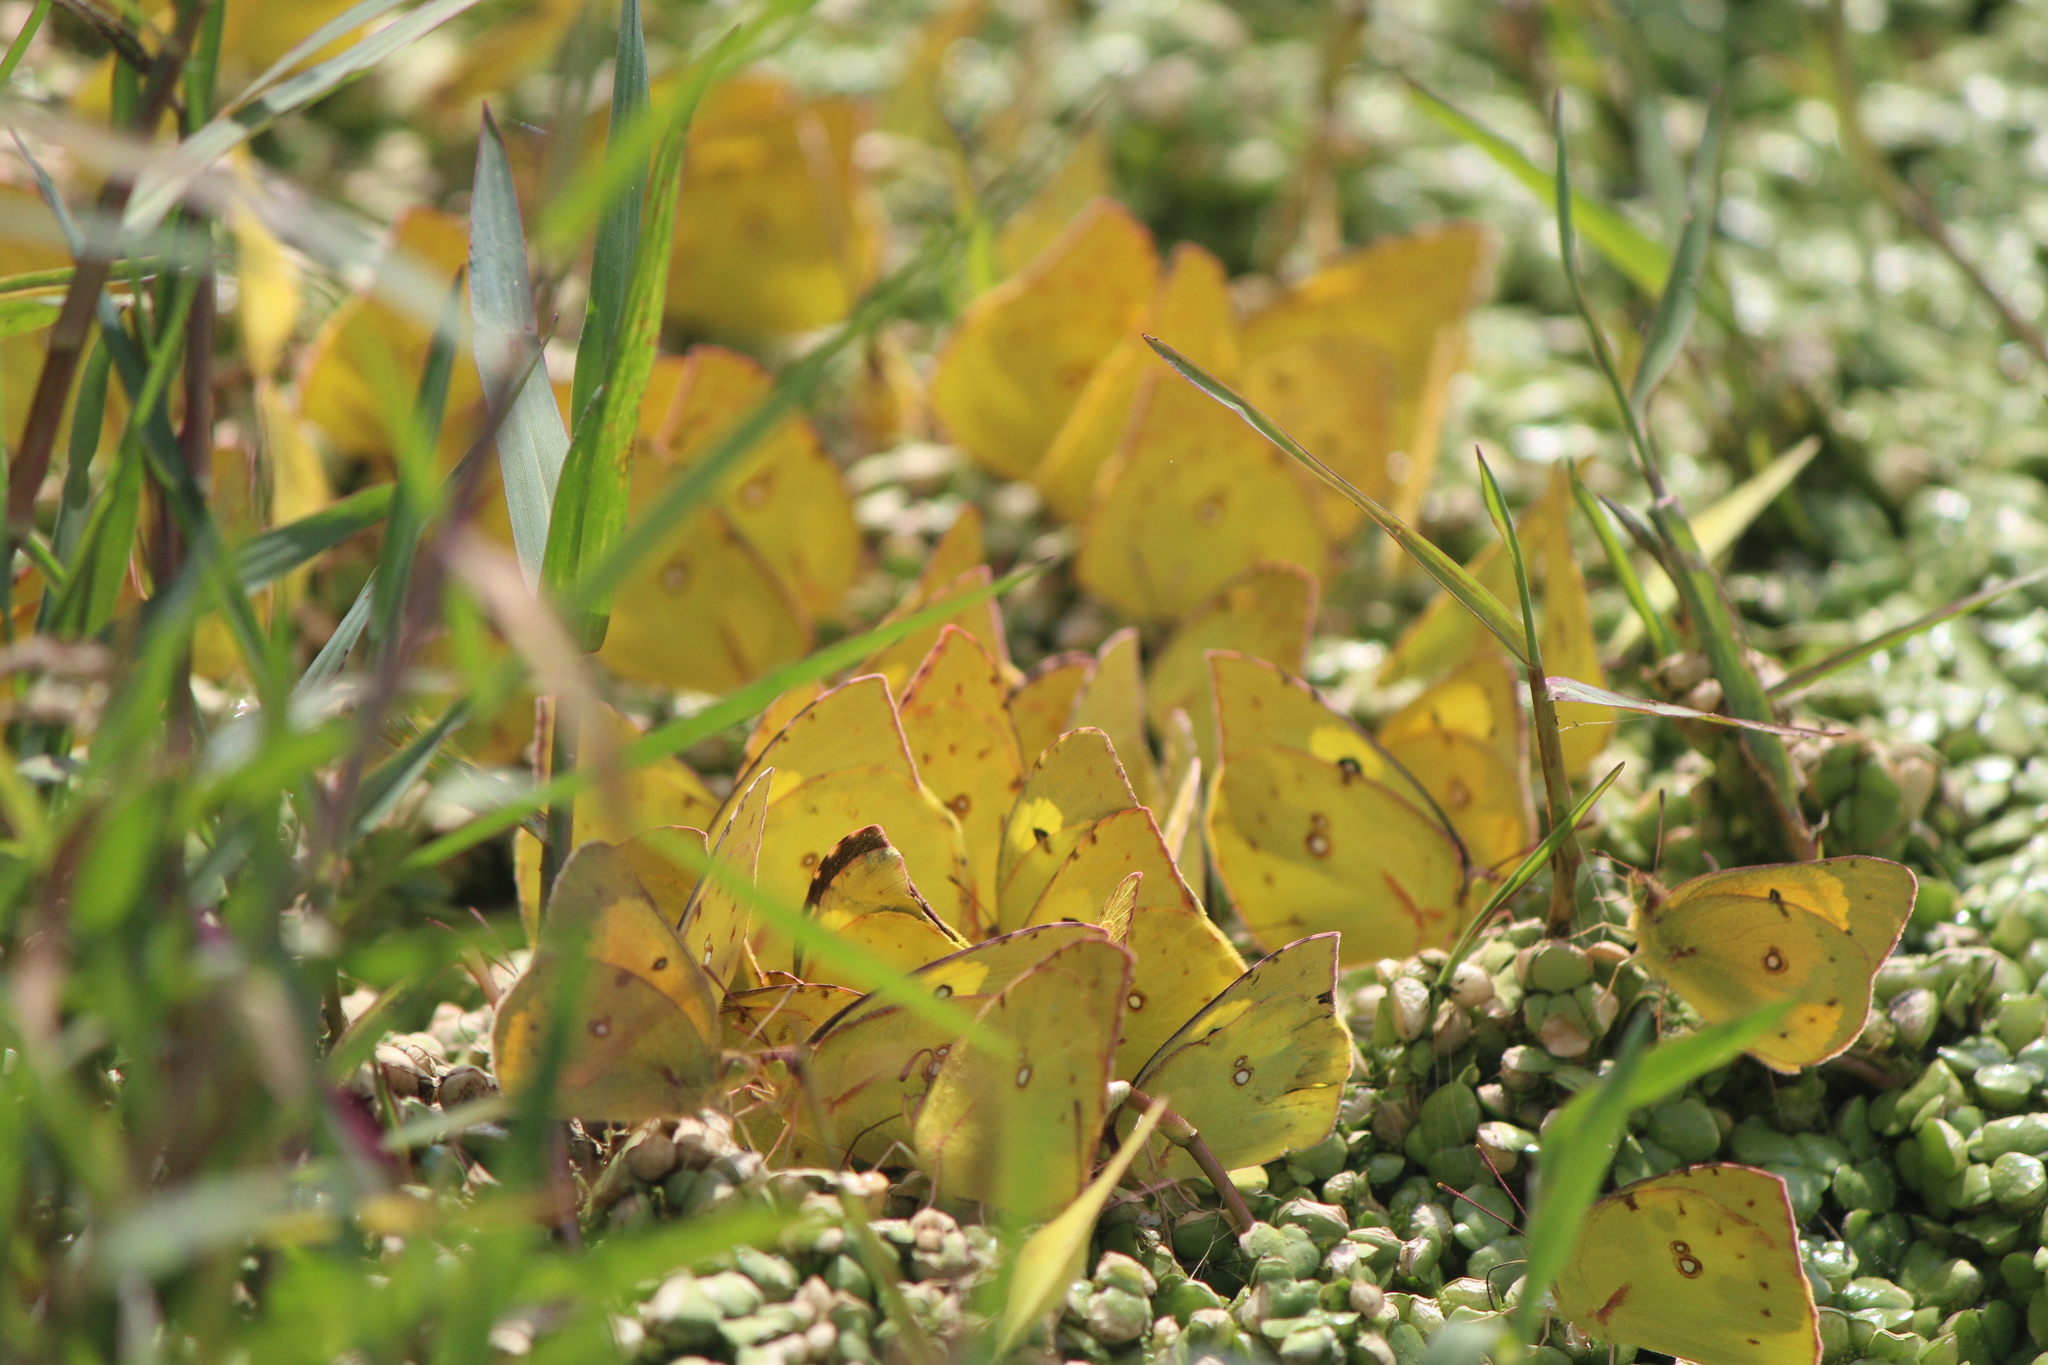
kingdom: Animalia
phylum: Arthropoda
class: Insecta
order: Lepidoptera
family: Pieridae
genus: Colias
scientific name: Colias eurytheme
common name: Alfalfa butterfly
